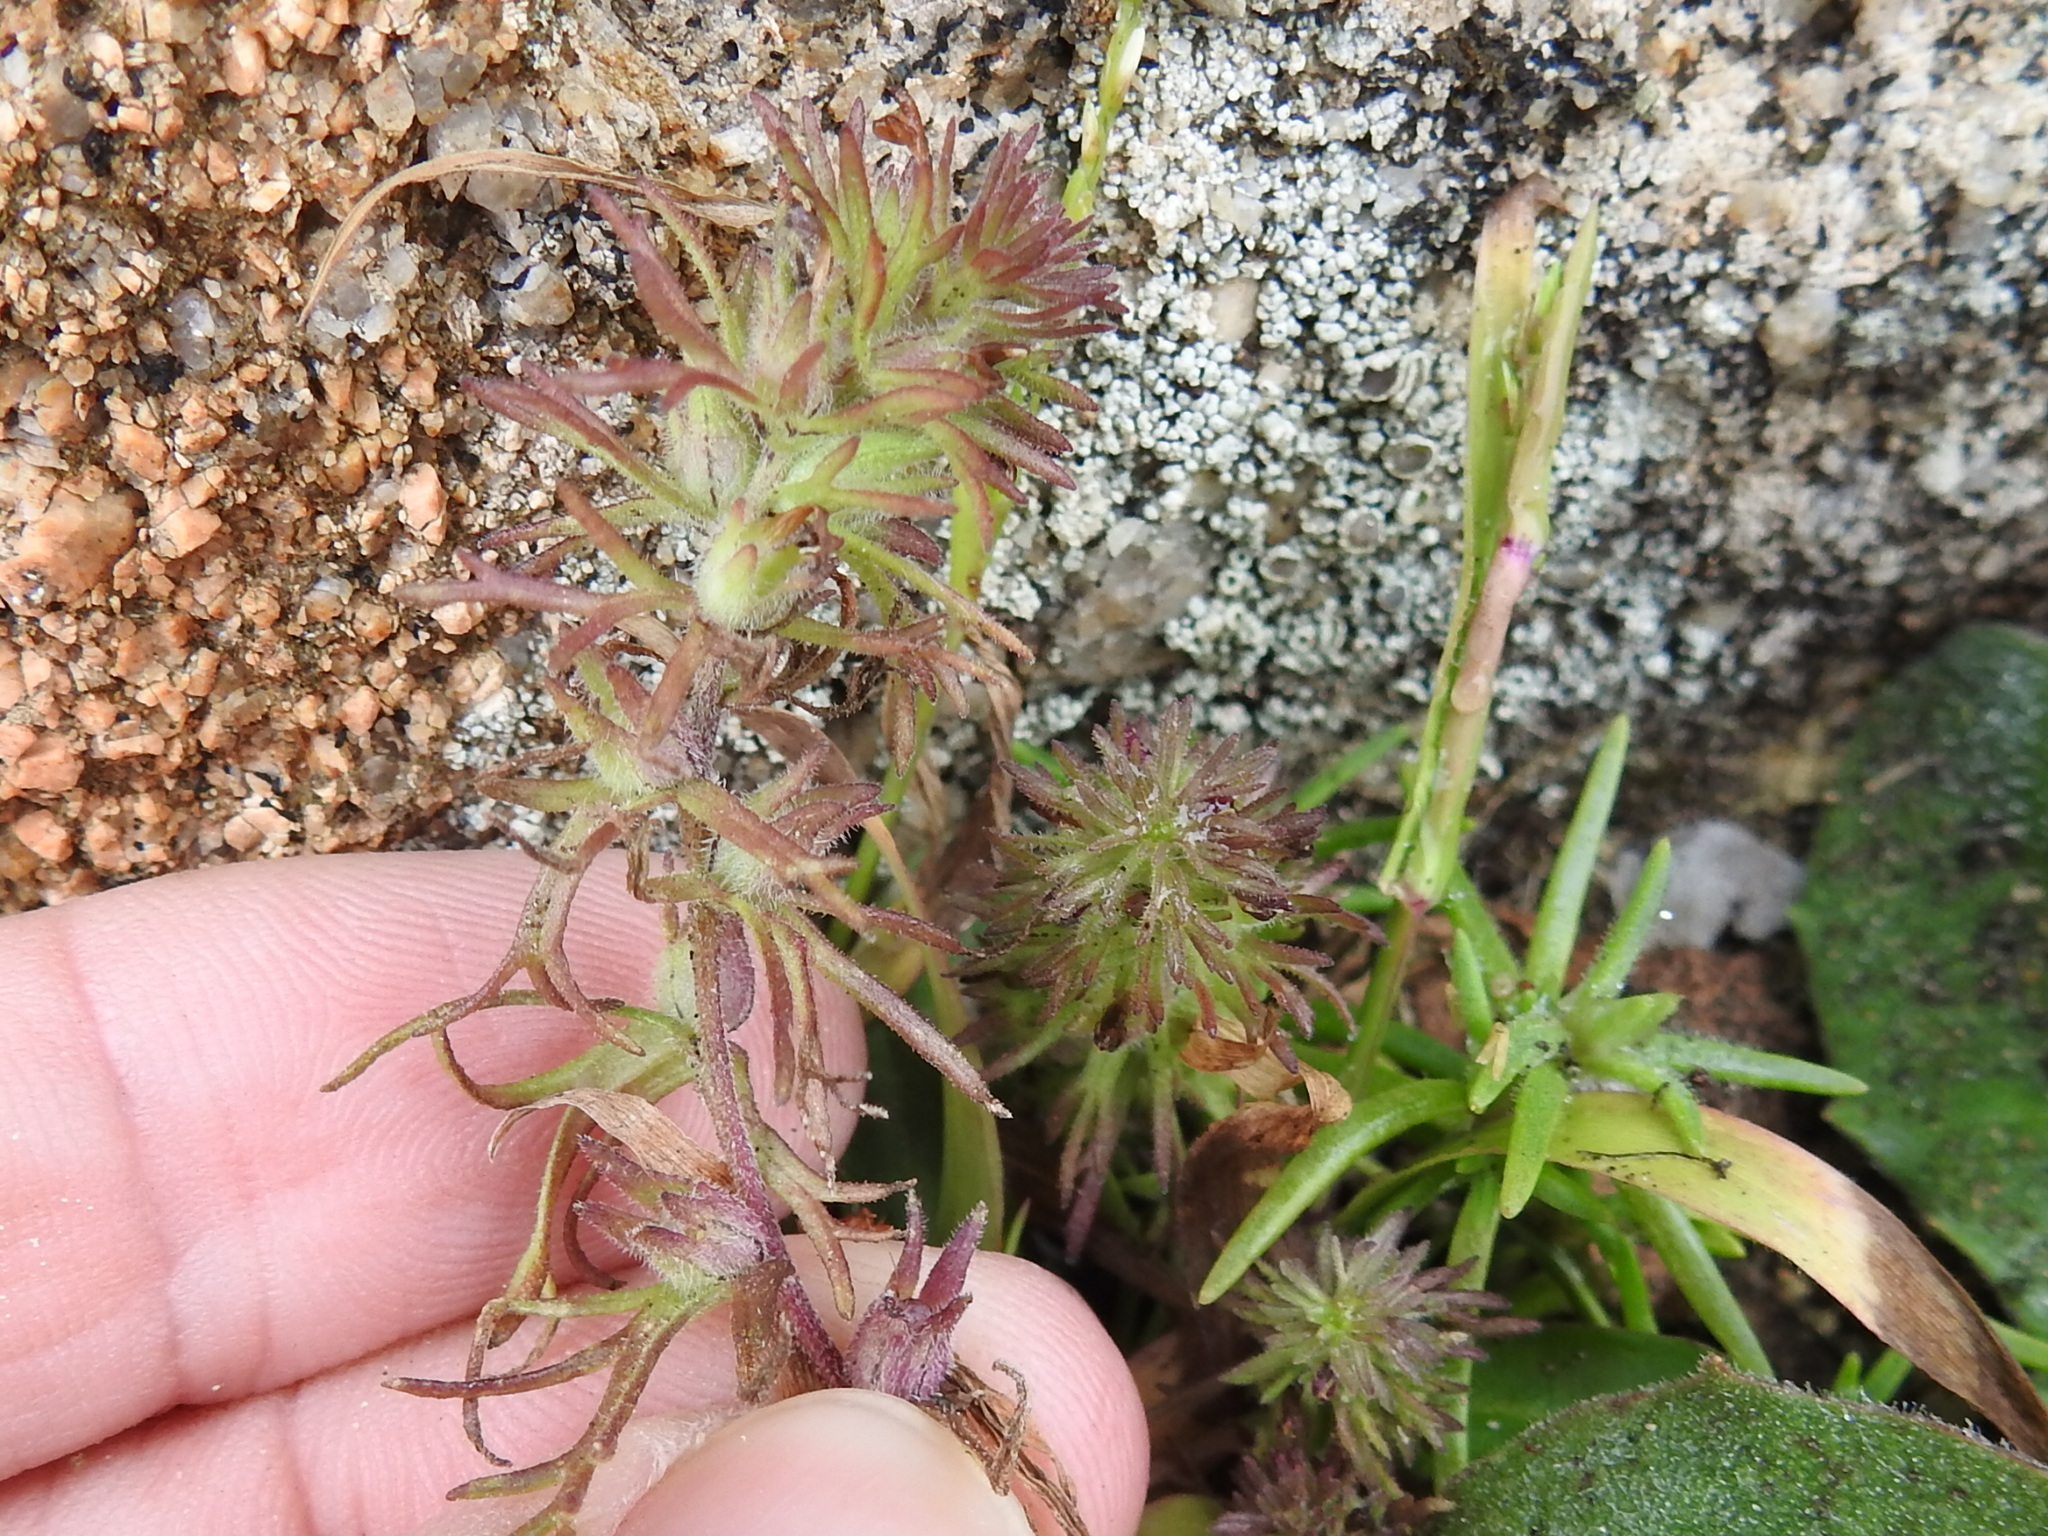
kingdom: Plantae
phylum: Tracheophyta
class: Magnoliopsida
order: Lamiales
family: Orobanchaceae
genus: Triphysaria
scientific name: Triphysaria pusilla
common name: Dwarf false owl-clover
